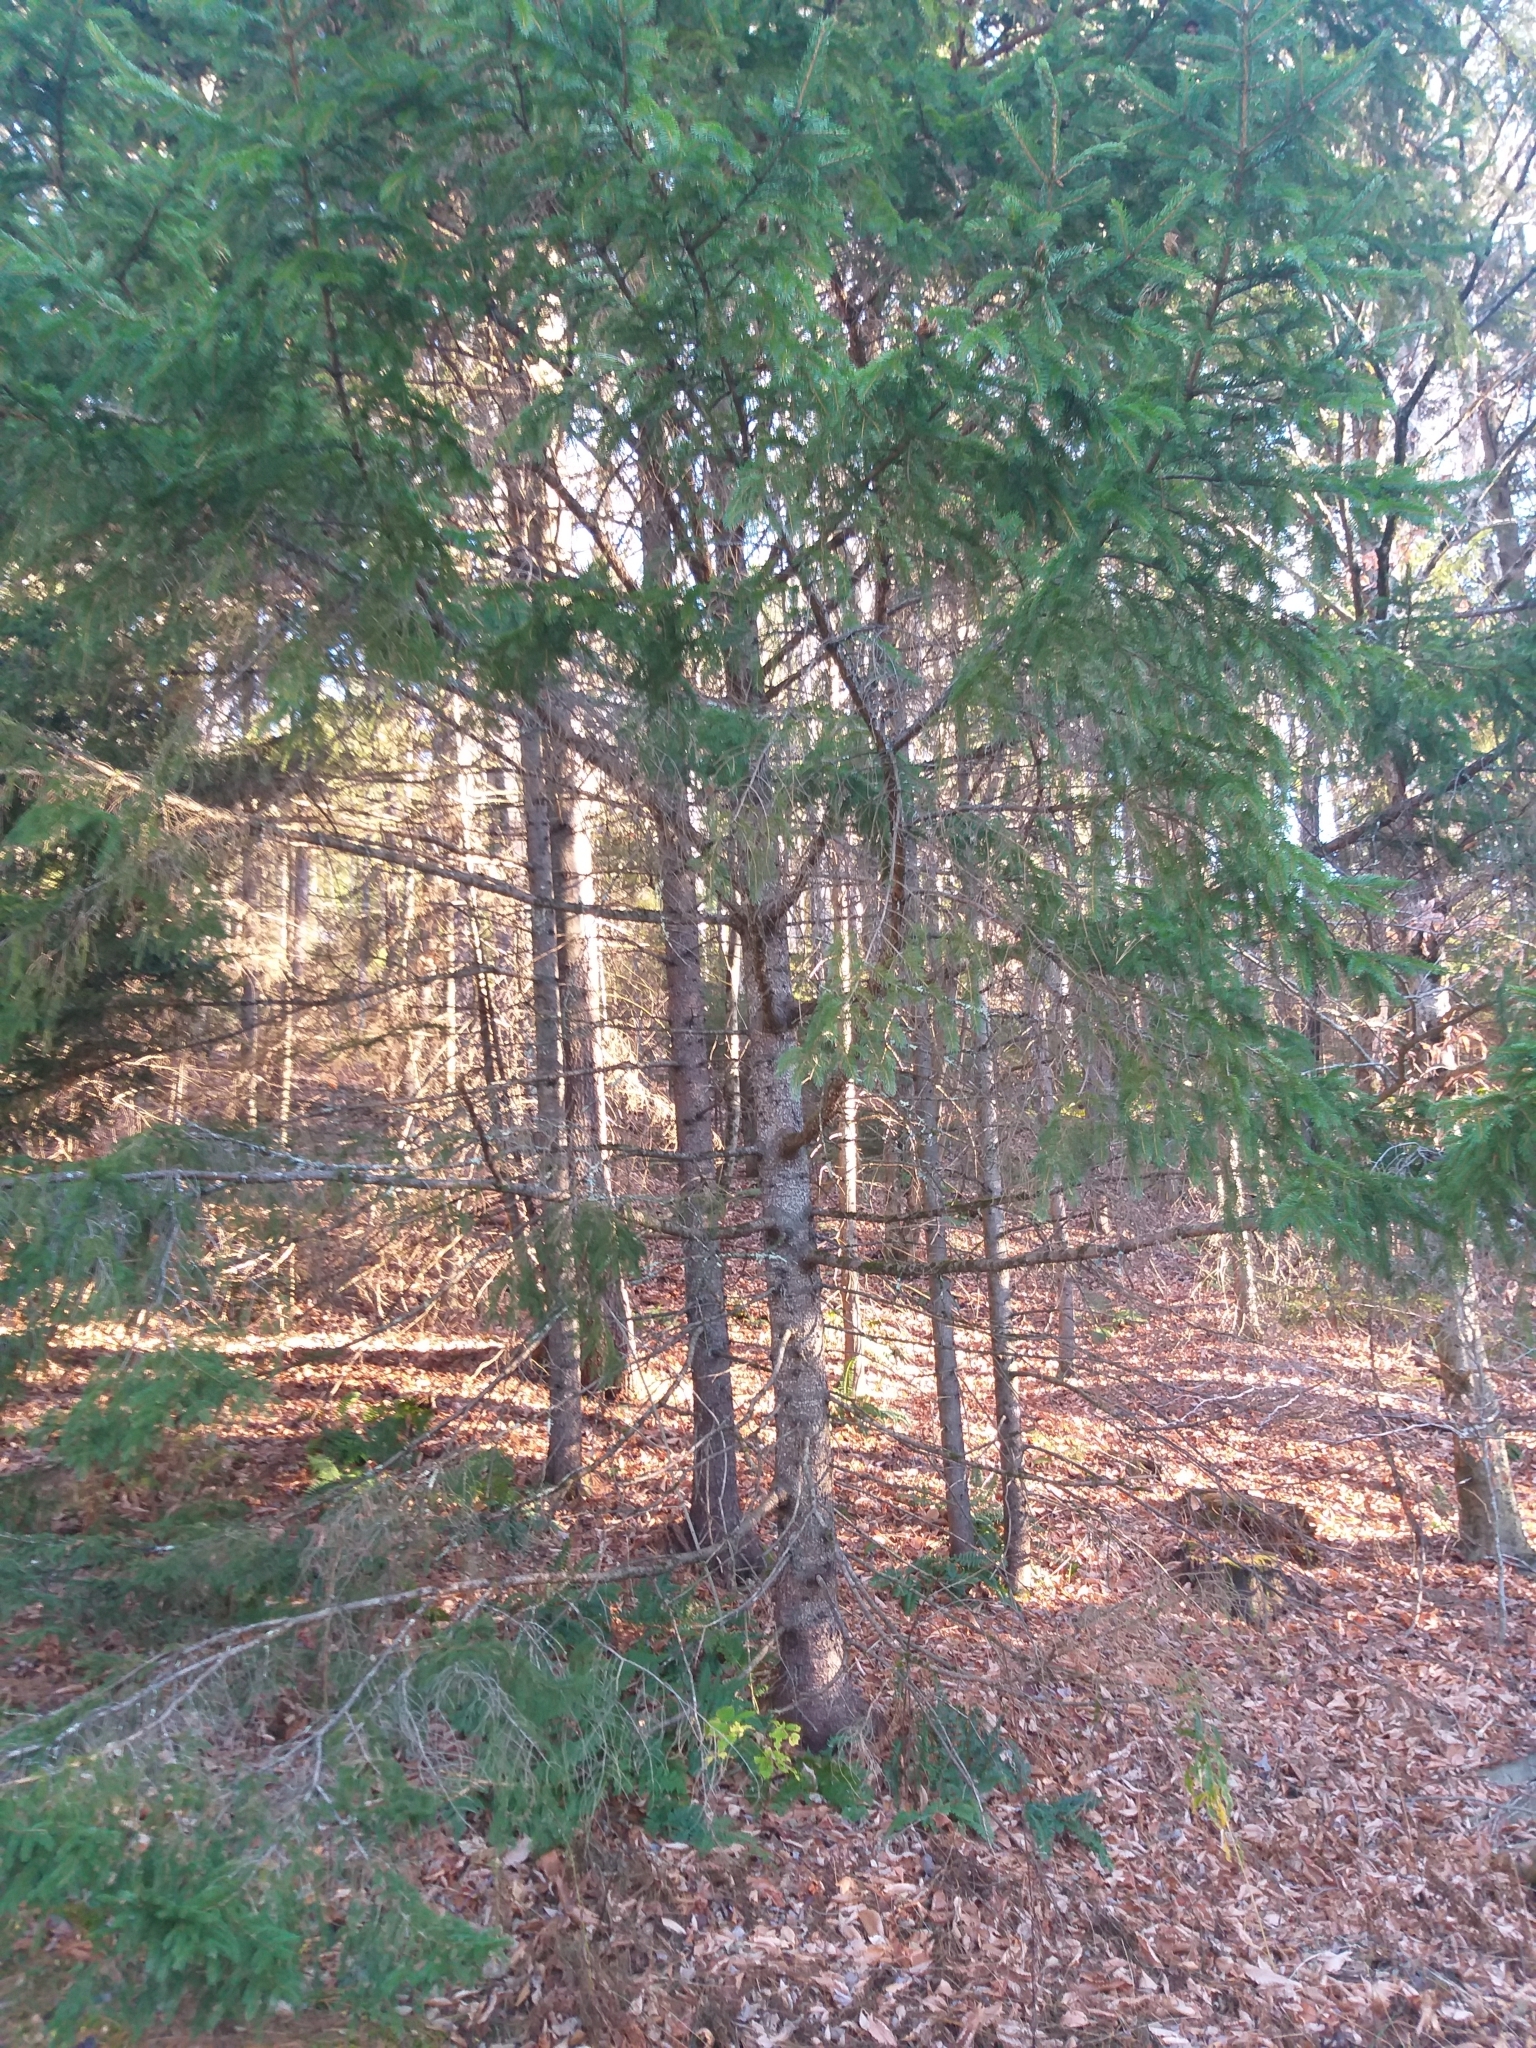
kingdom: Plantae
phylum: Tracheophyta
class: Pinopsida
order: Pinales
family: Pinaceae
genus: Picea
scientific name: Picea rubens
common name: Red spruce
